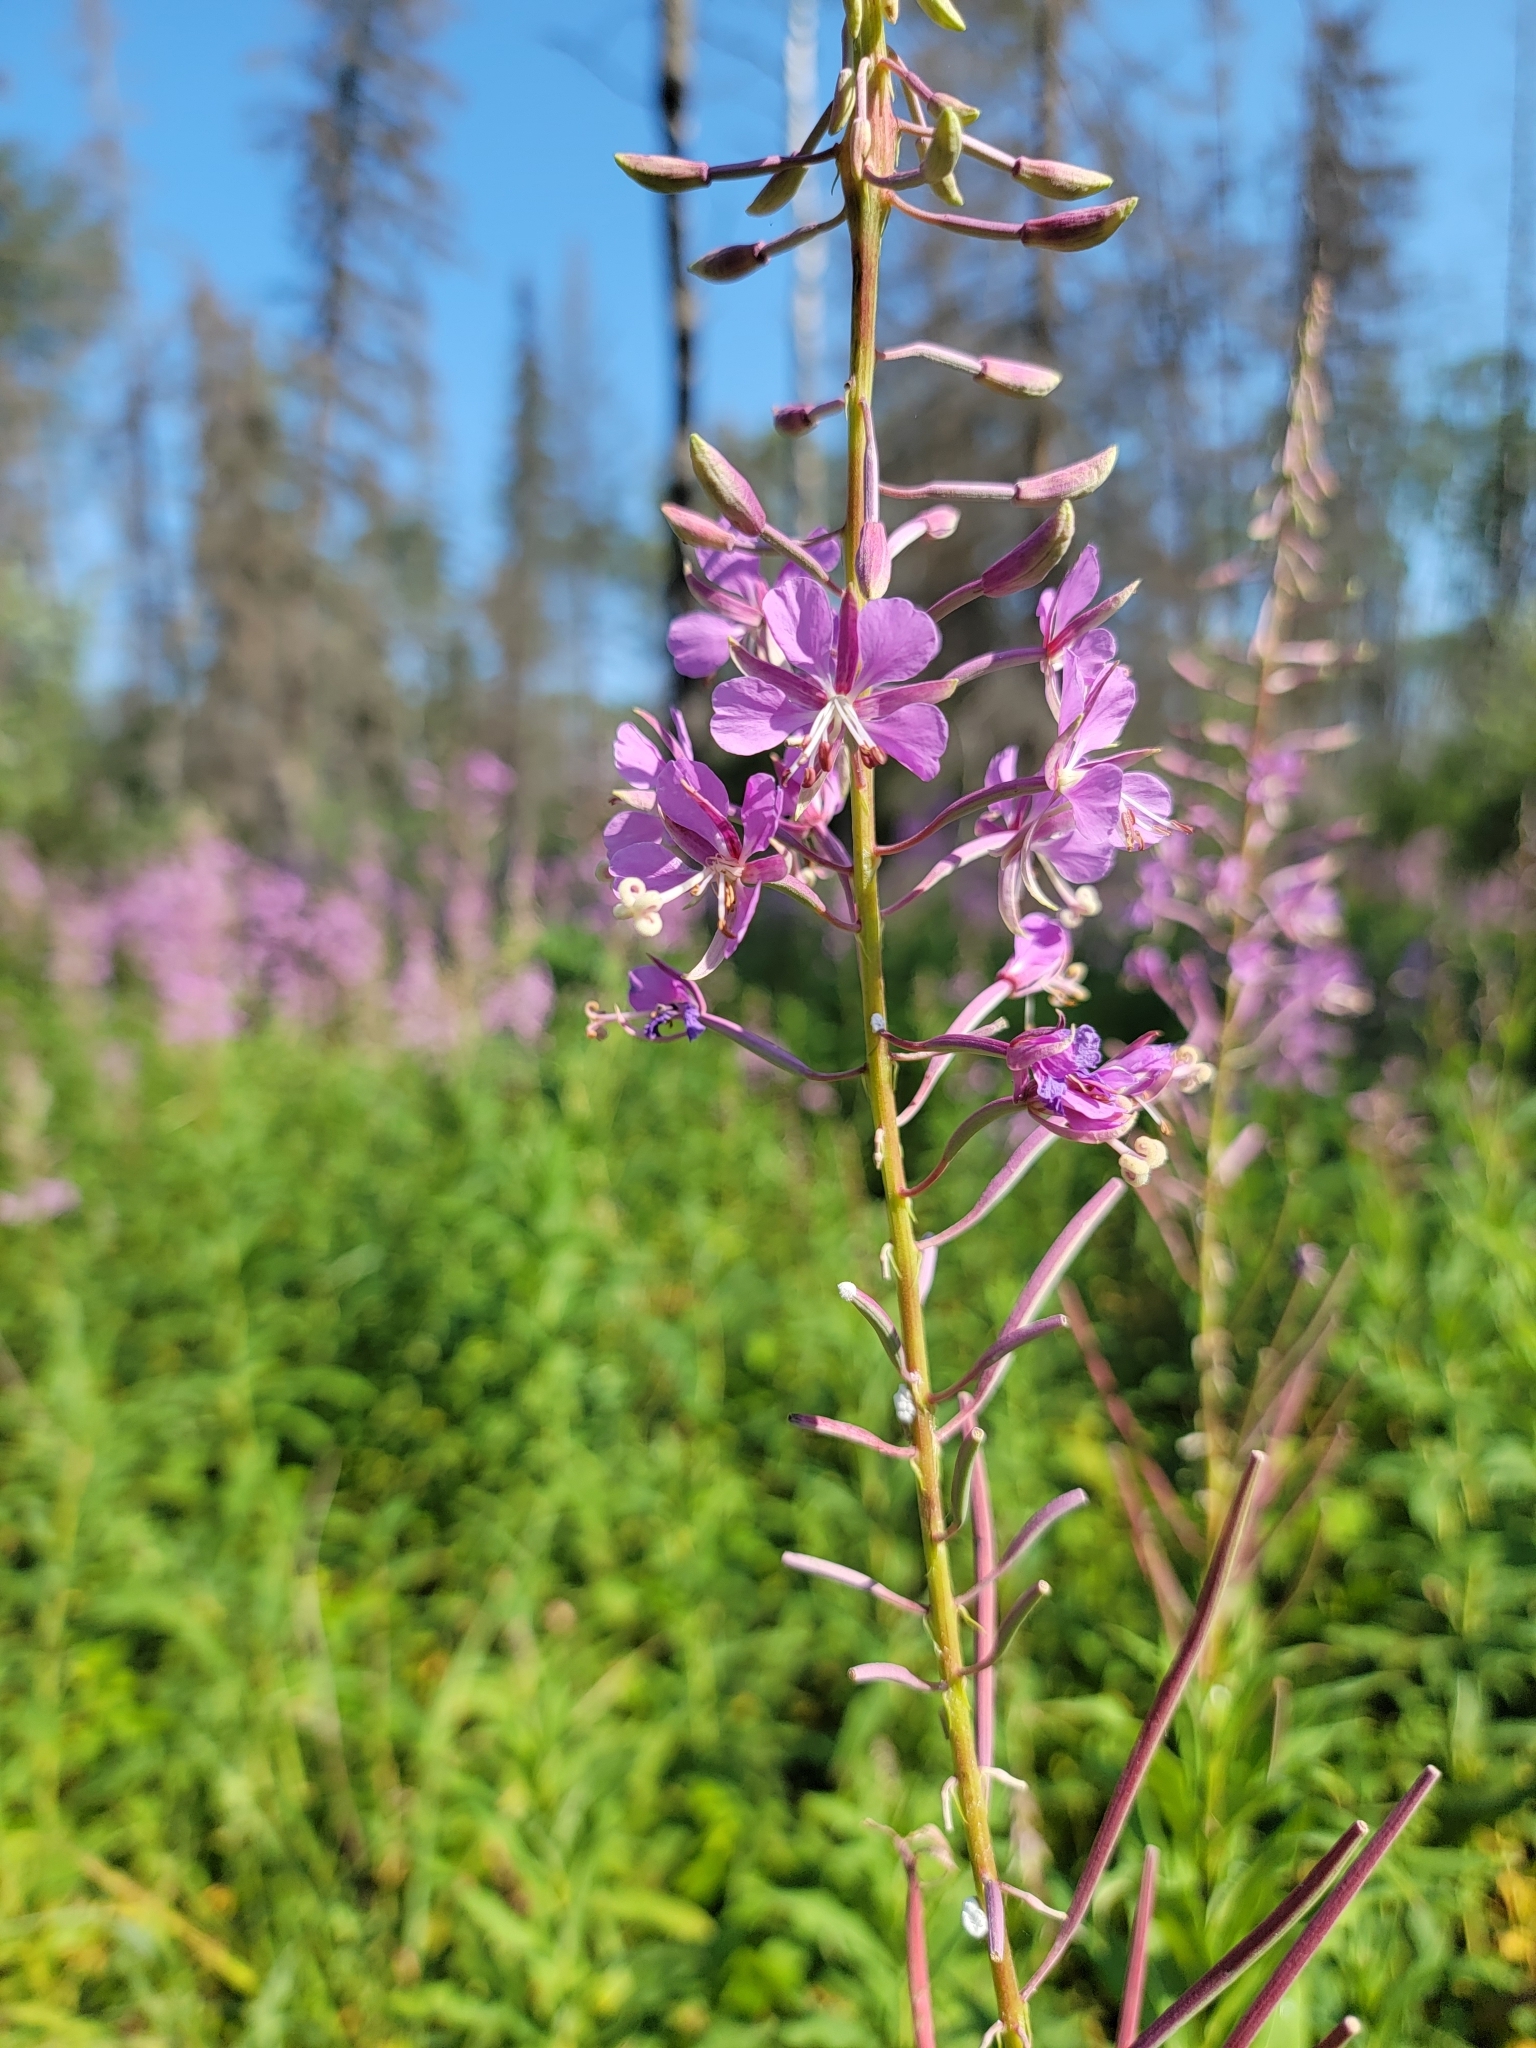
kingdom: Plantae
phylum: Tracheophyta
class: Magnoliopsida
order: Myrtales
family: Onagraceae
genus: Chamaenerion
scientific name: Chamaenerion angustifolium
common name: Fireweed
